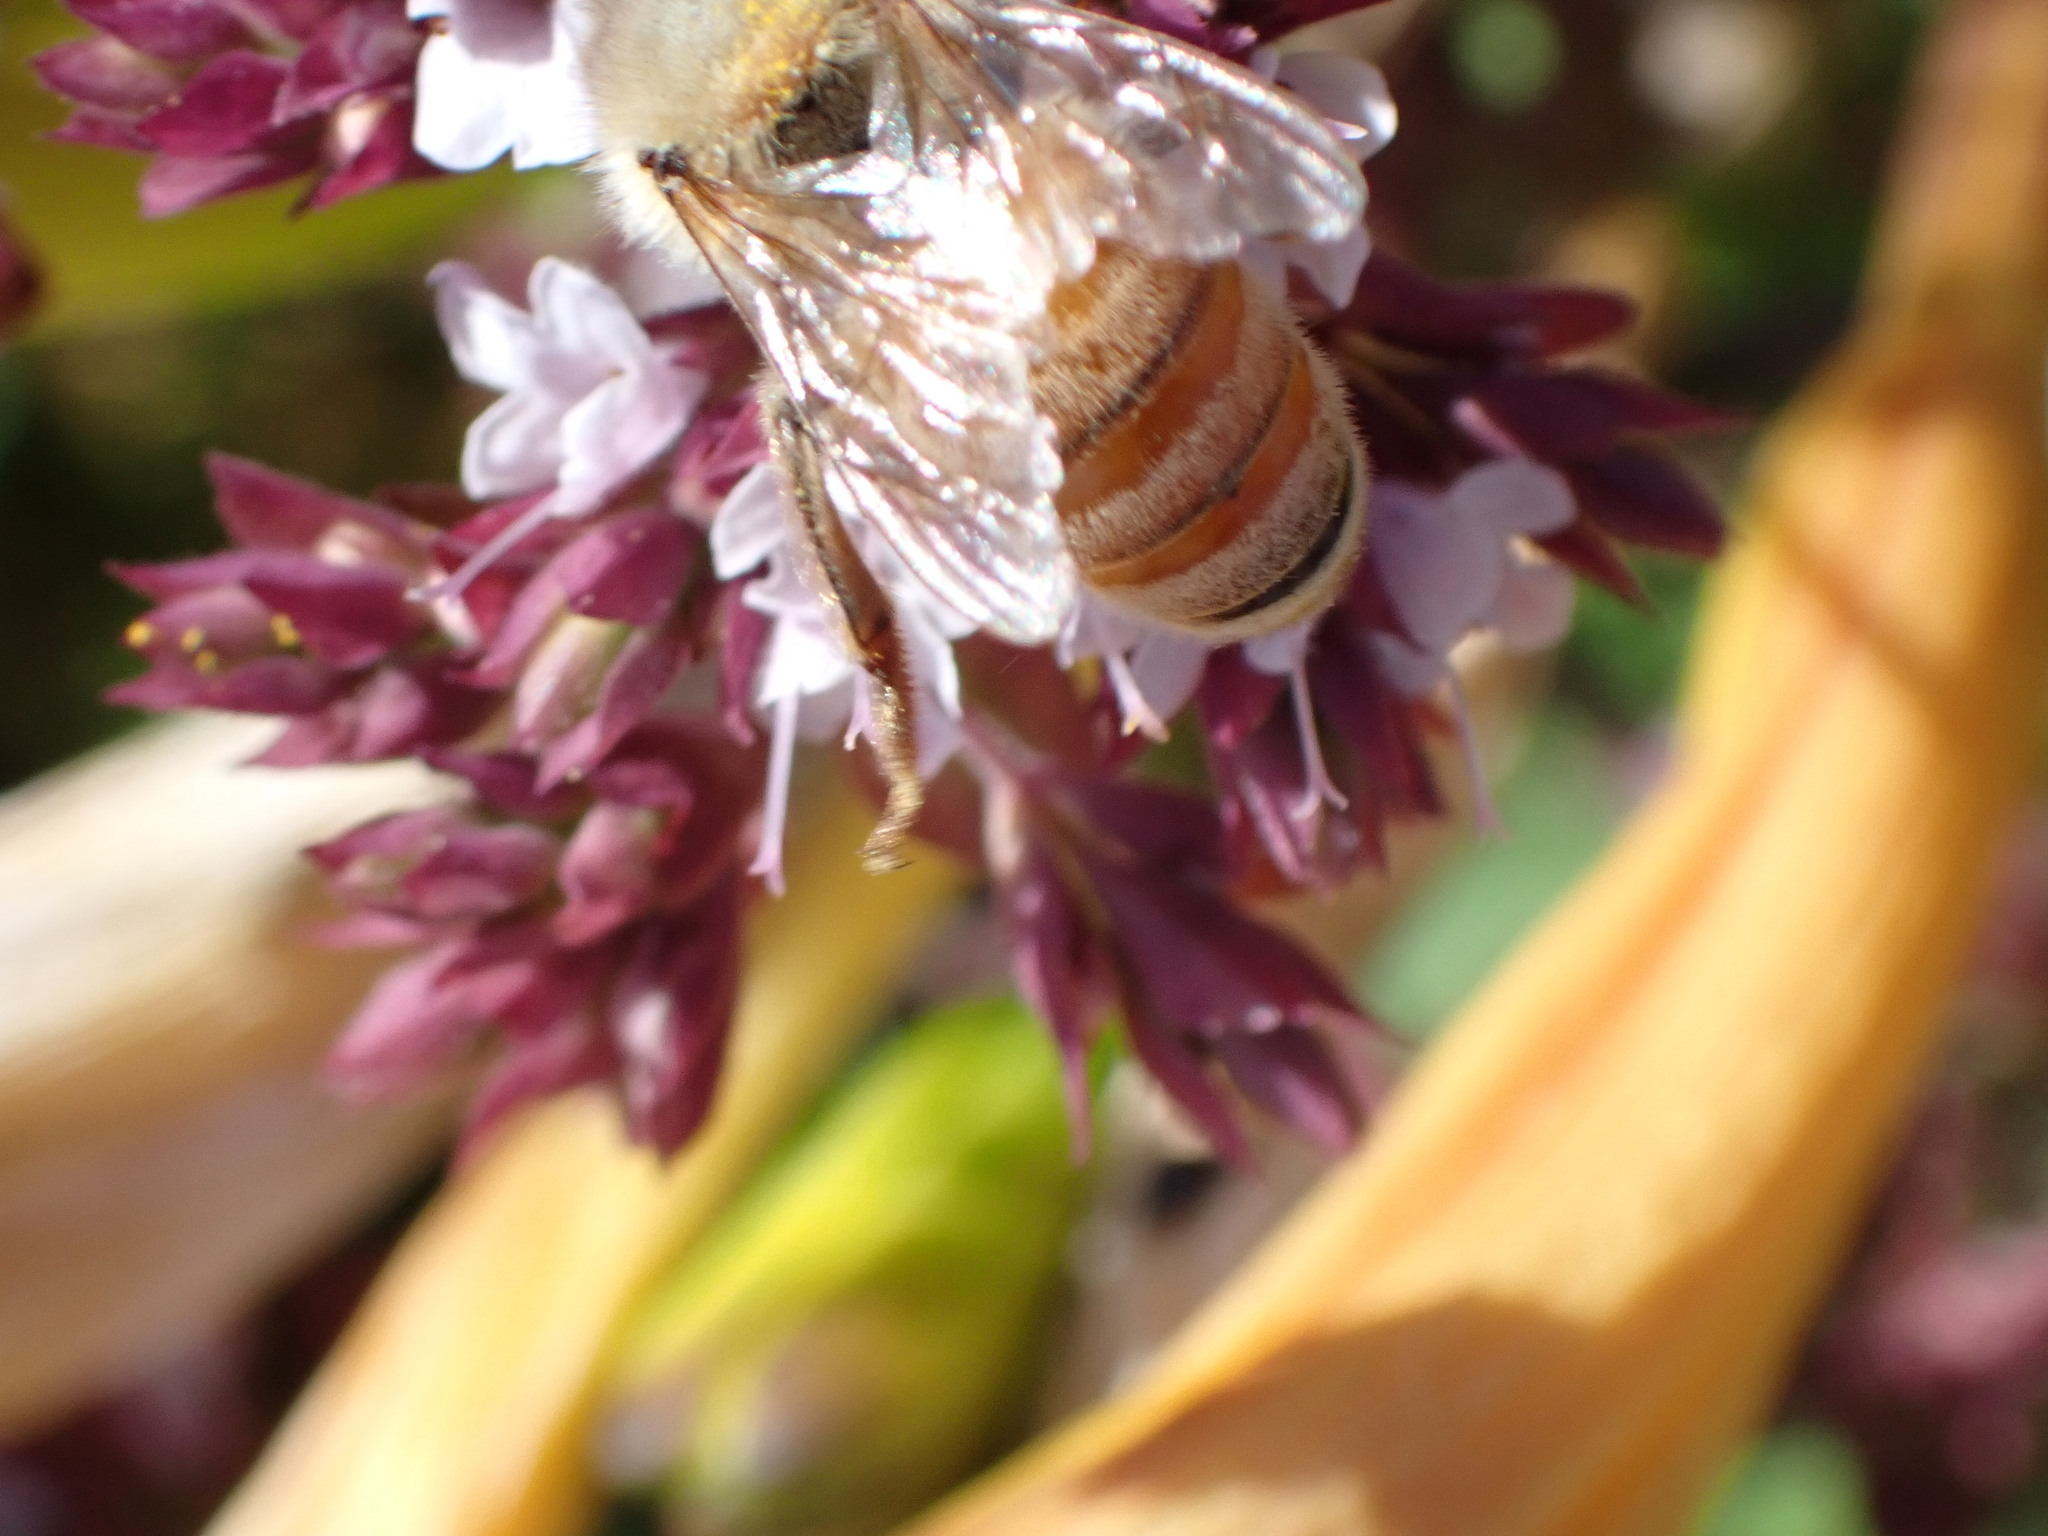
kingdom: Animalia
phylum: Arthropoda
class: Insecta
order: Hymenoptera
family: Apidae
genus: Apis
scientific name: Apis mellifera
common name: Honey bee
